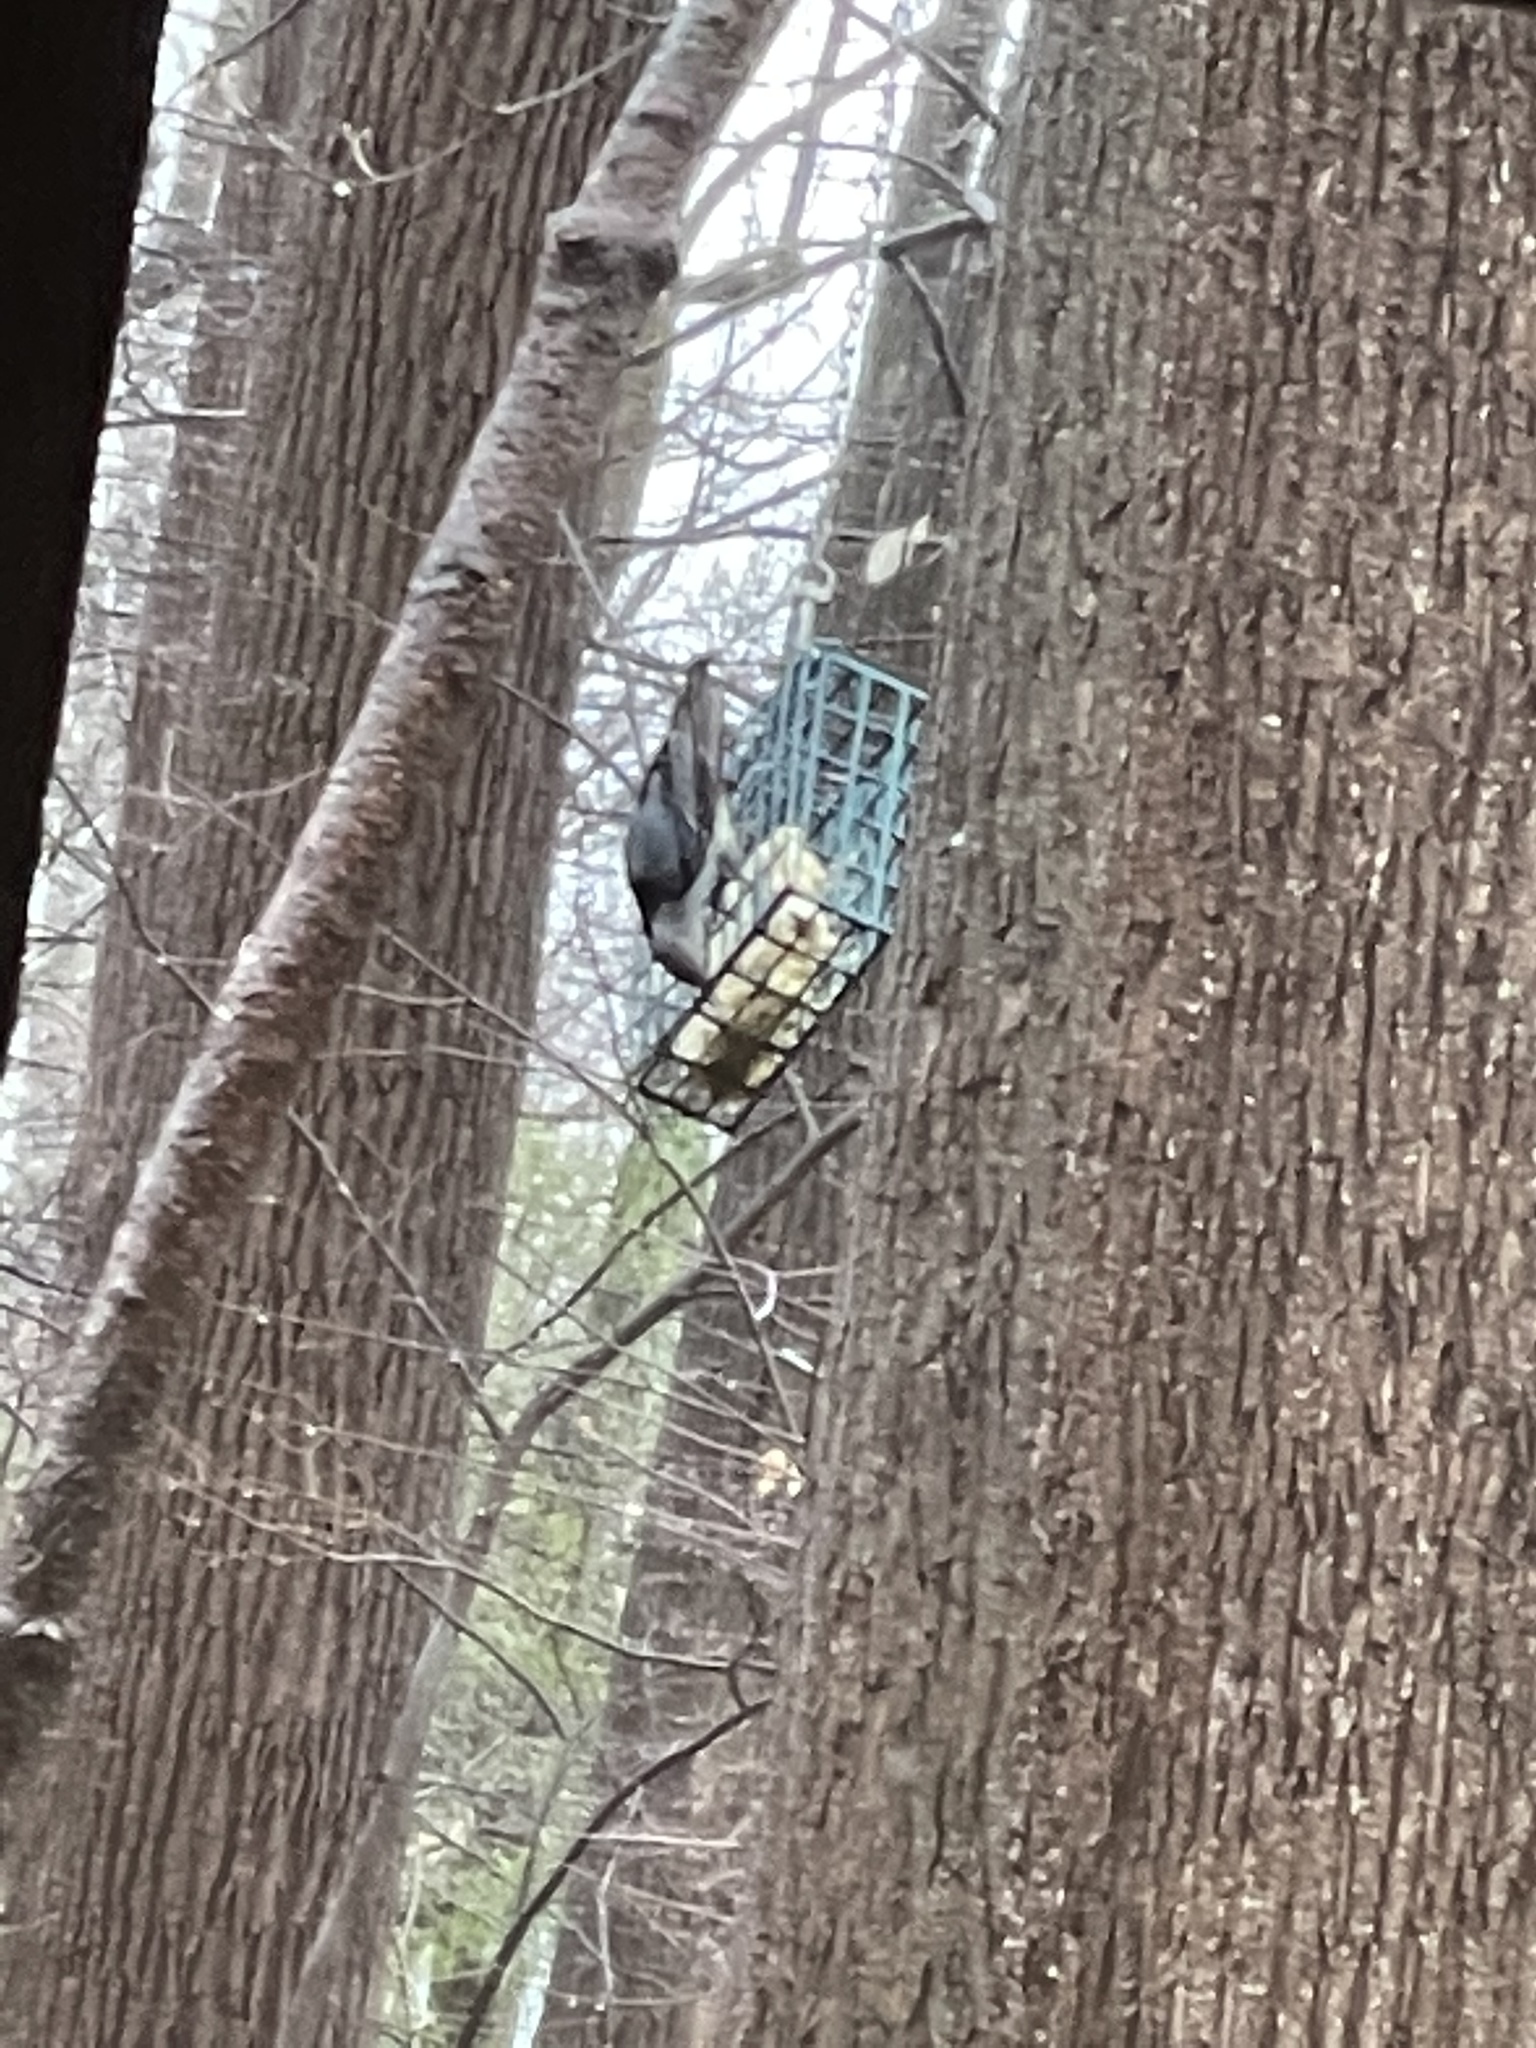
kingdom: Animalia
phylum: Chordata
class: Aves
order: Passeriformes
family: Sittidae
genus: Sitta
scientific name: Sitta carolinensis
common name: White-breasted nuthatch
